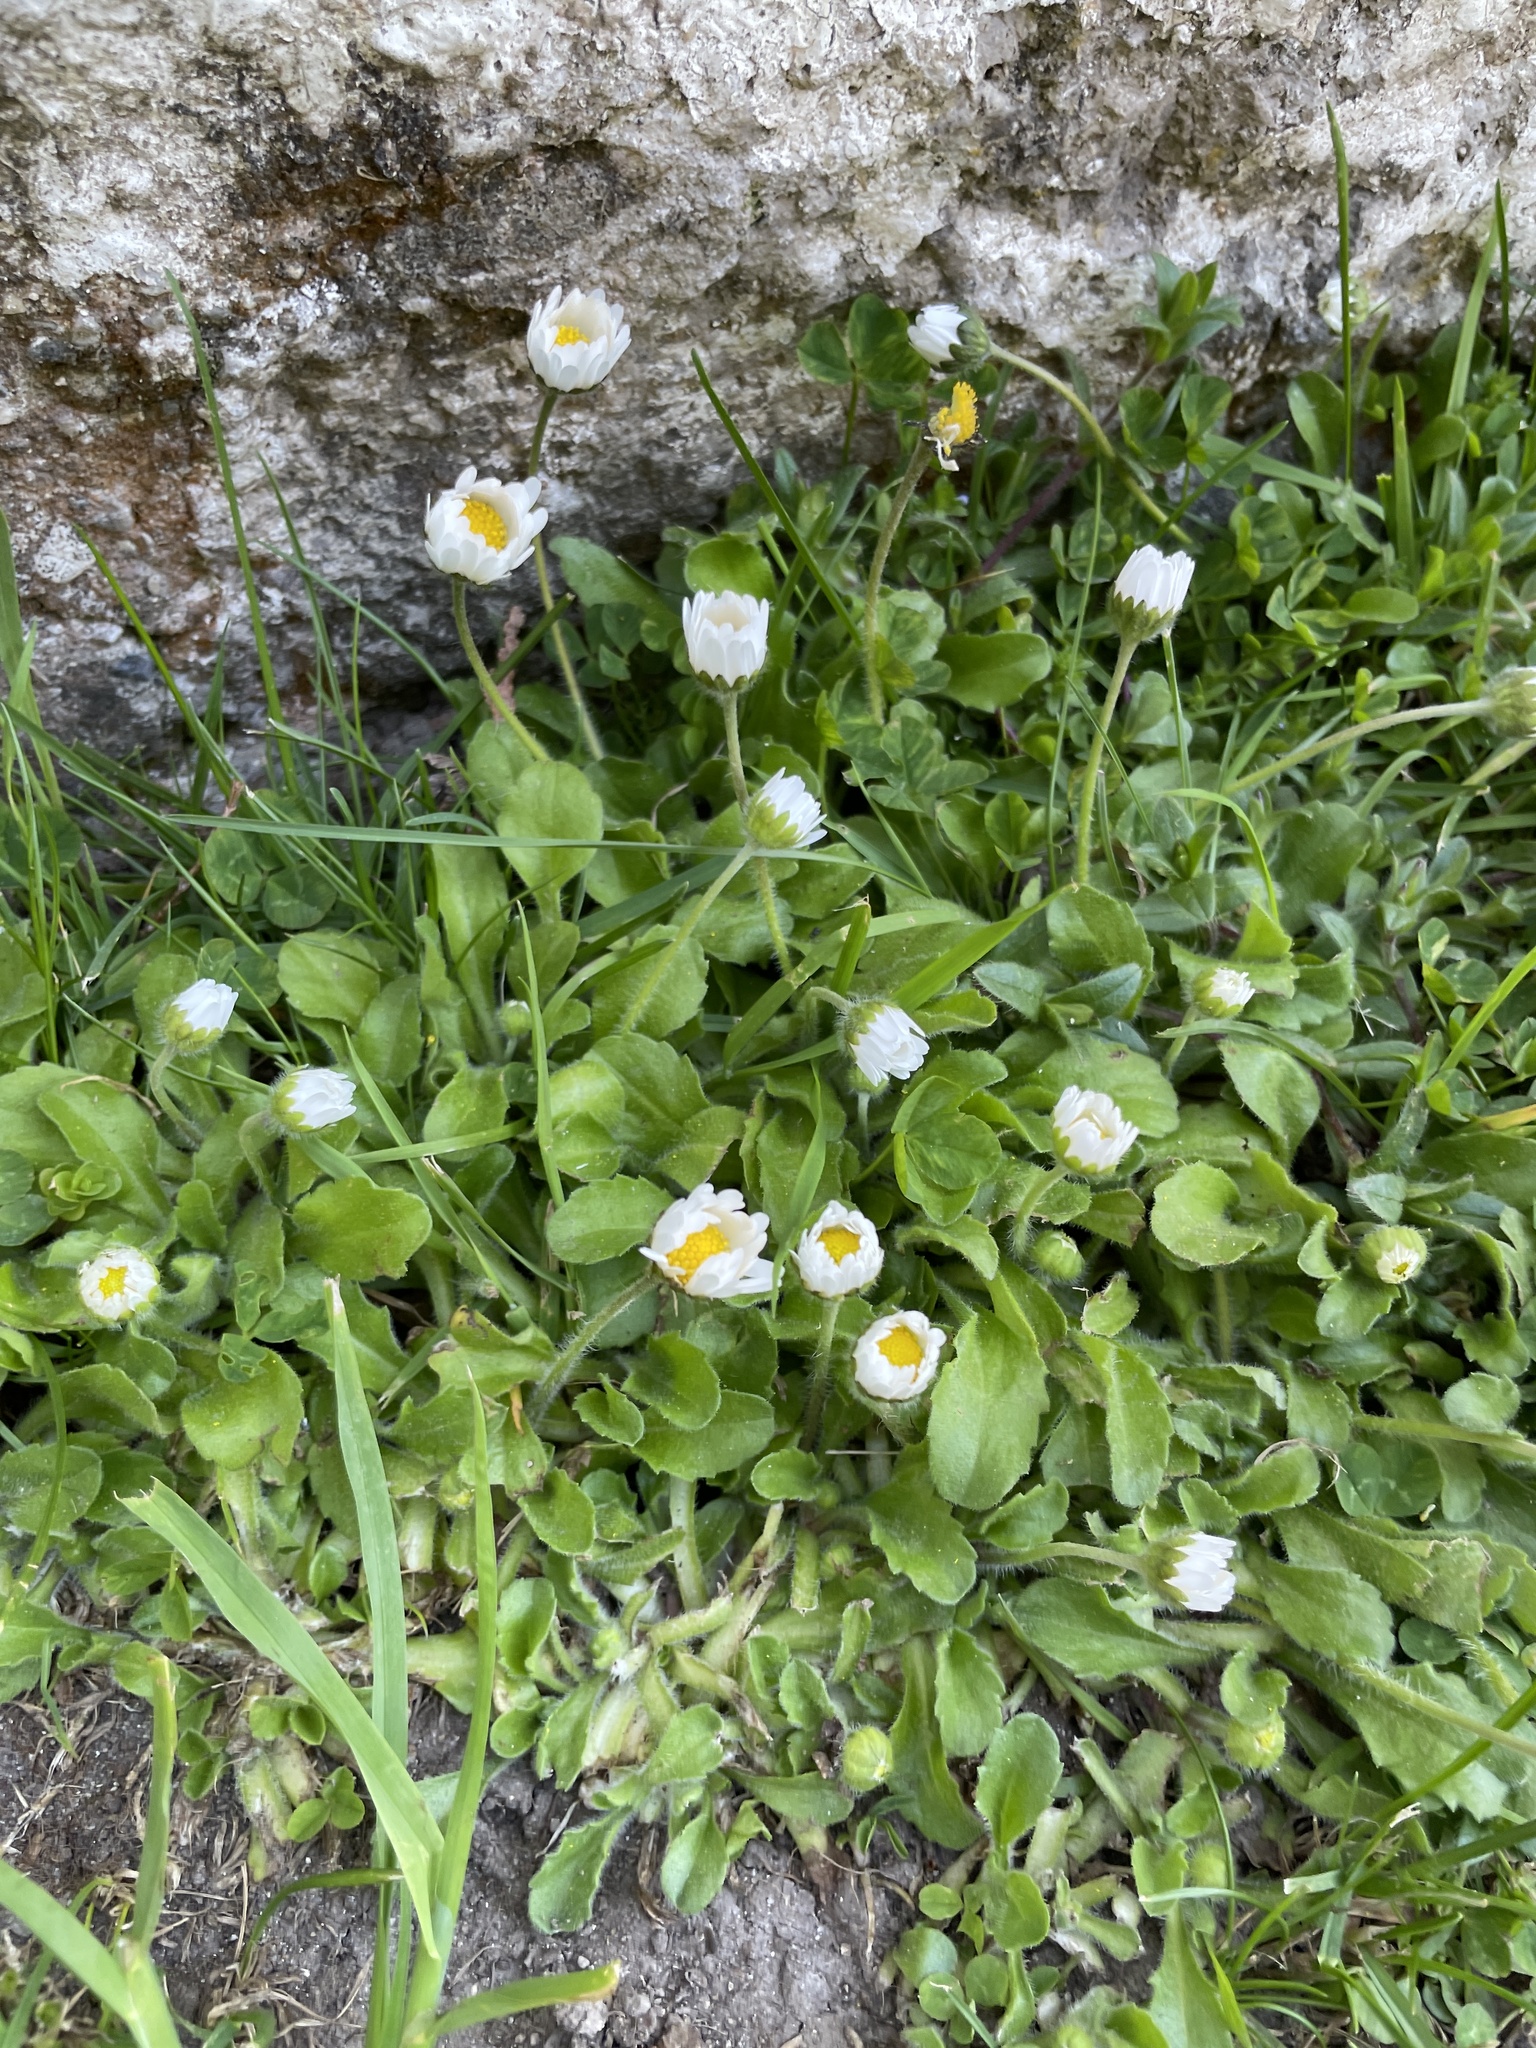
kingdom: Plantae
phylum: Tracheophyta
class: Magnoliopsida
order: Asterales
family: Asteraceae
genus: Bellis
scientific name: Bellis perennis
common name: Lawndaisy
